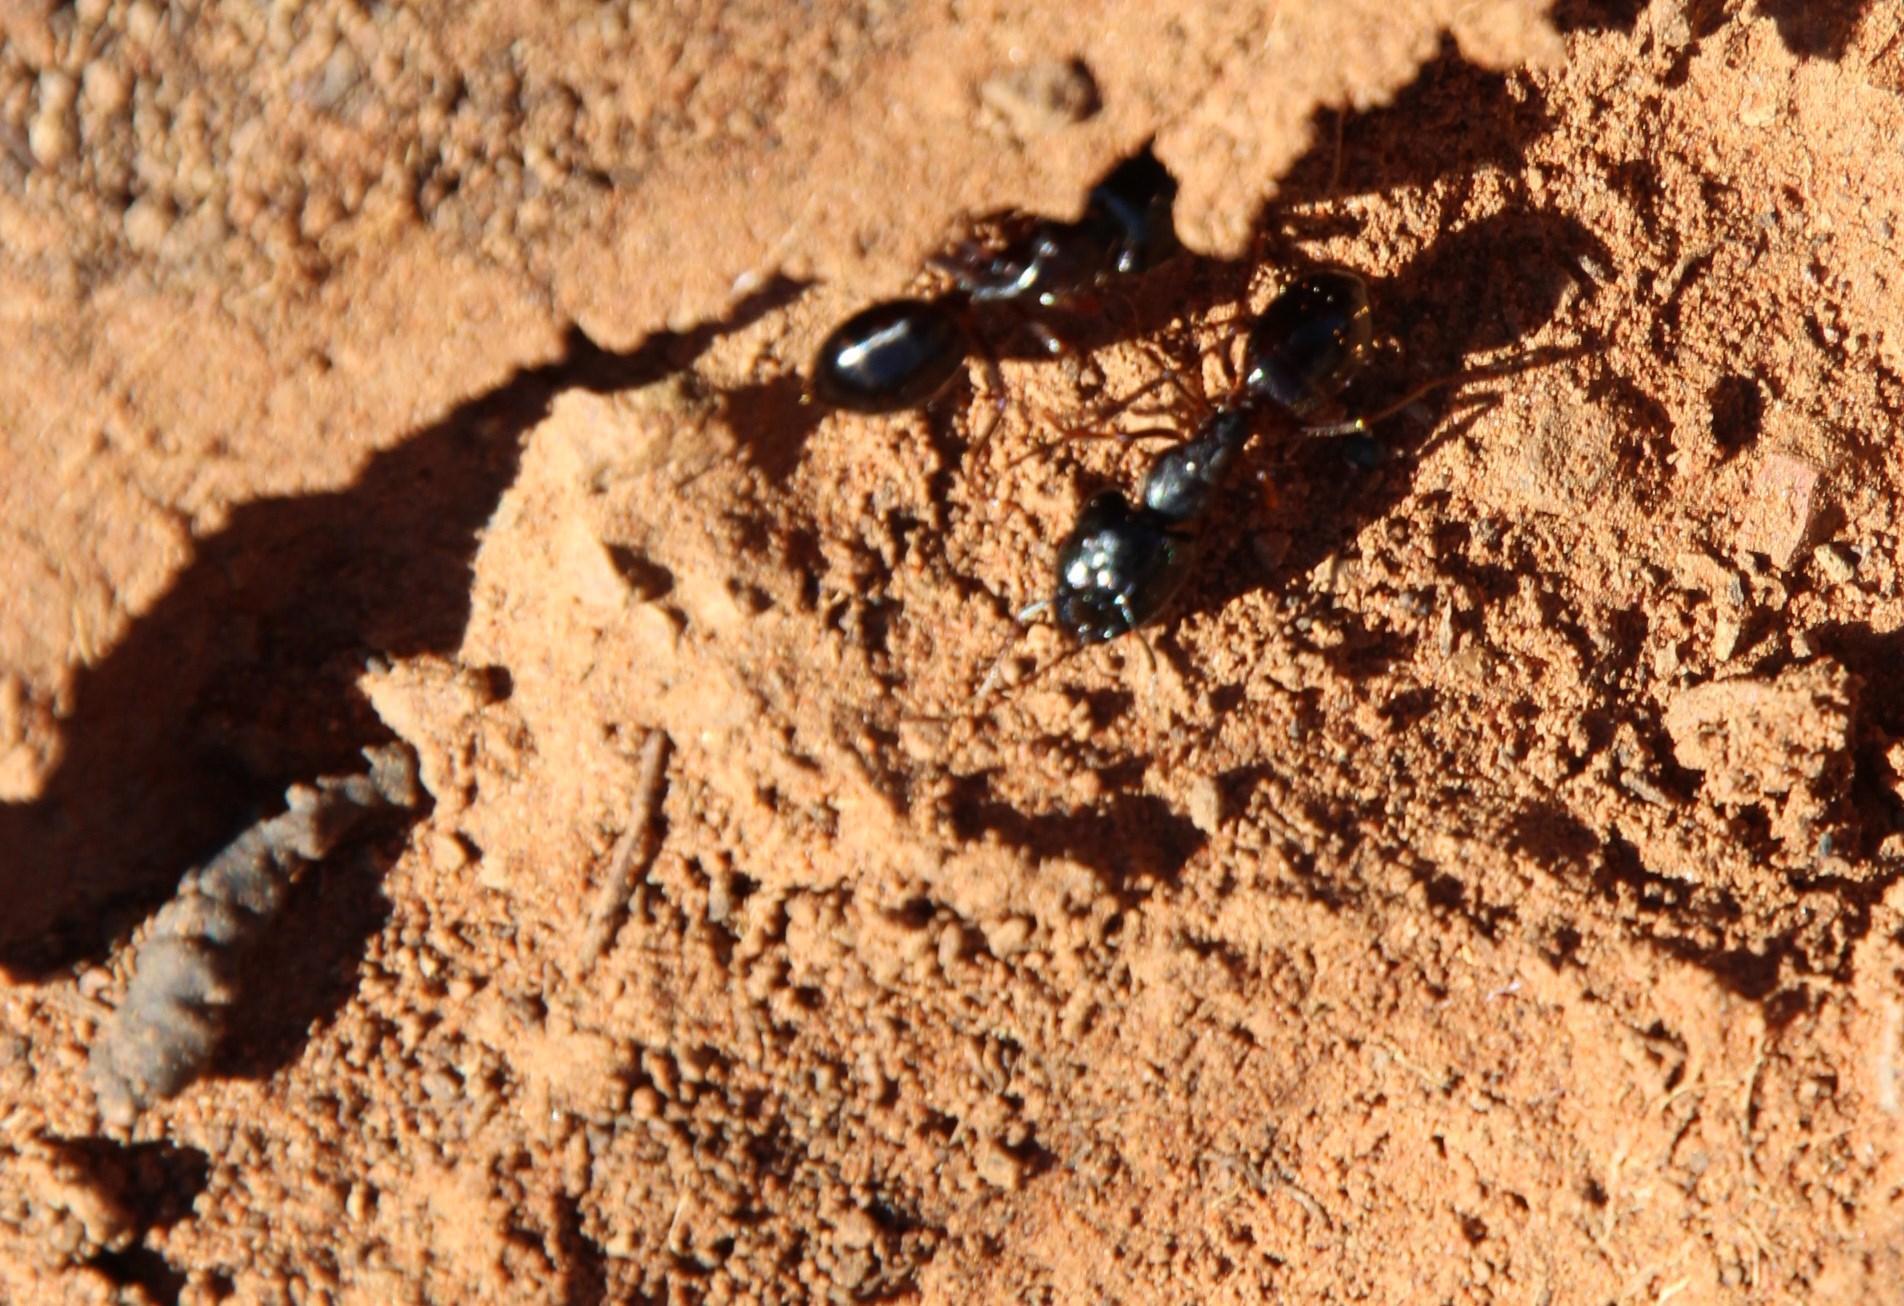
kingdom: Animalia
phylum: Arthropoda
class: Insecta
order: Hymenoptera
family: Formicidae
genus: Camponotus
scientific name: Camponotus empedocles
